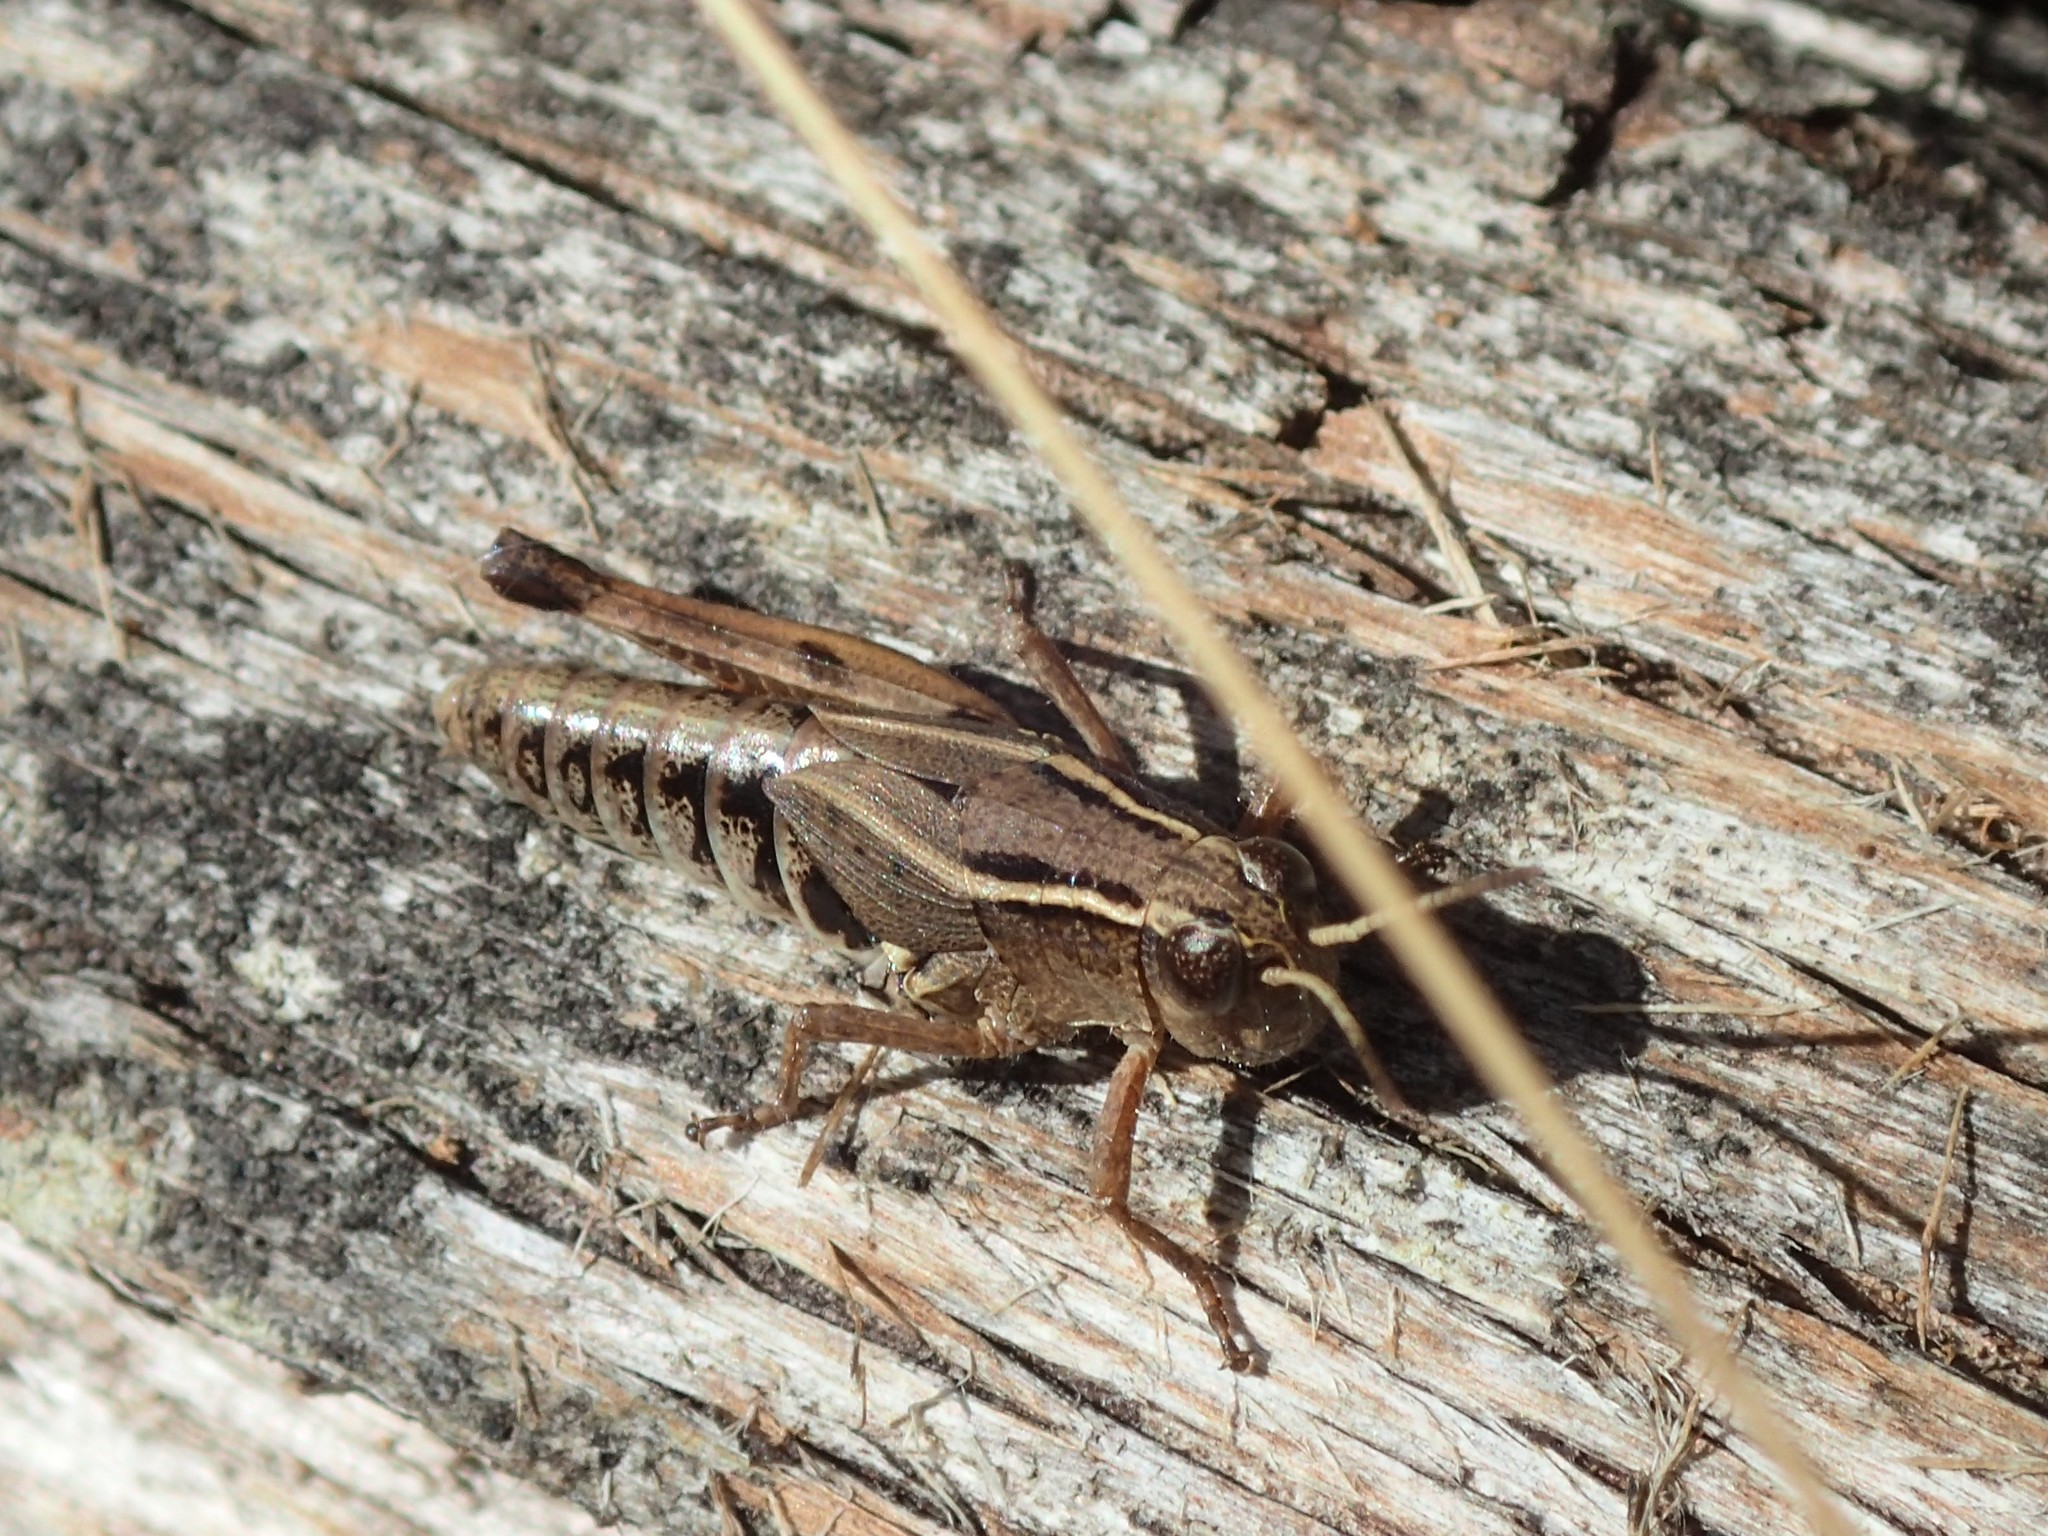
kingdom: Animalia
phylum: Arthropoda
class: Insecta
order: Orthoptera
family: Acrididae
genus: Phaulacridium
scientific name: Phaulacridium vittatum
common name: Wingless grasshopper
